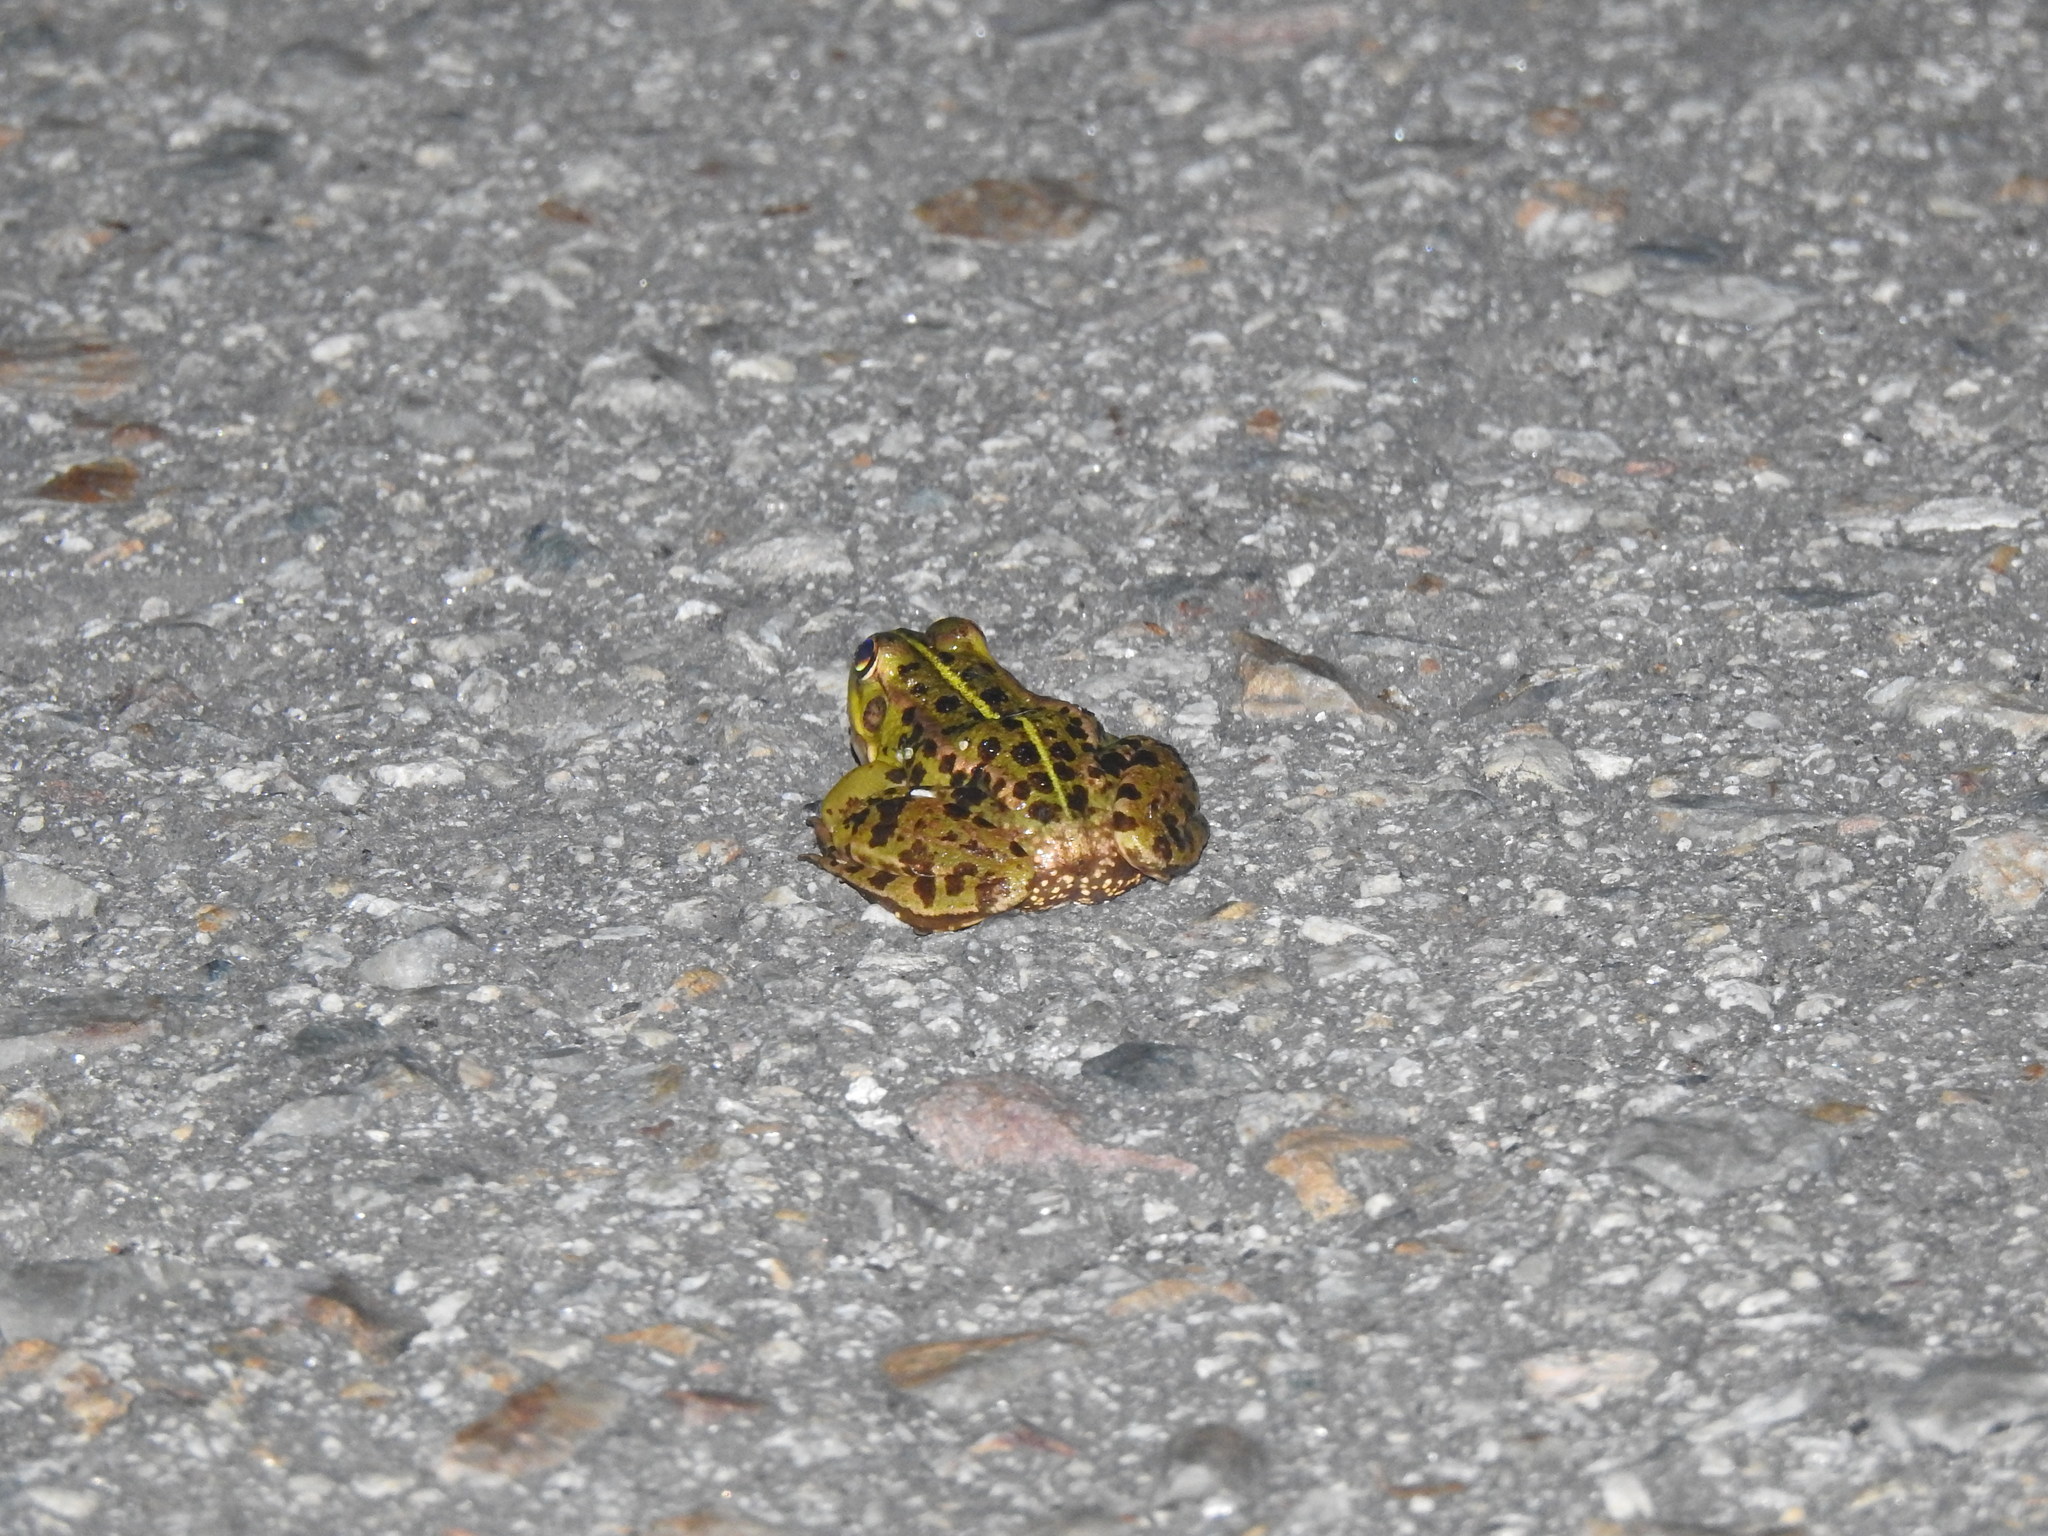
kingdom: Animalia
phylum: Chordata
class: Amphibia
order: Anura
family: Ranidae
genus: Pelophylax
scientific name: Pelophylax perezi
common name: Perez's frog
